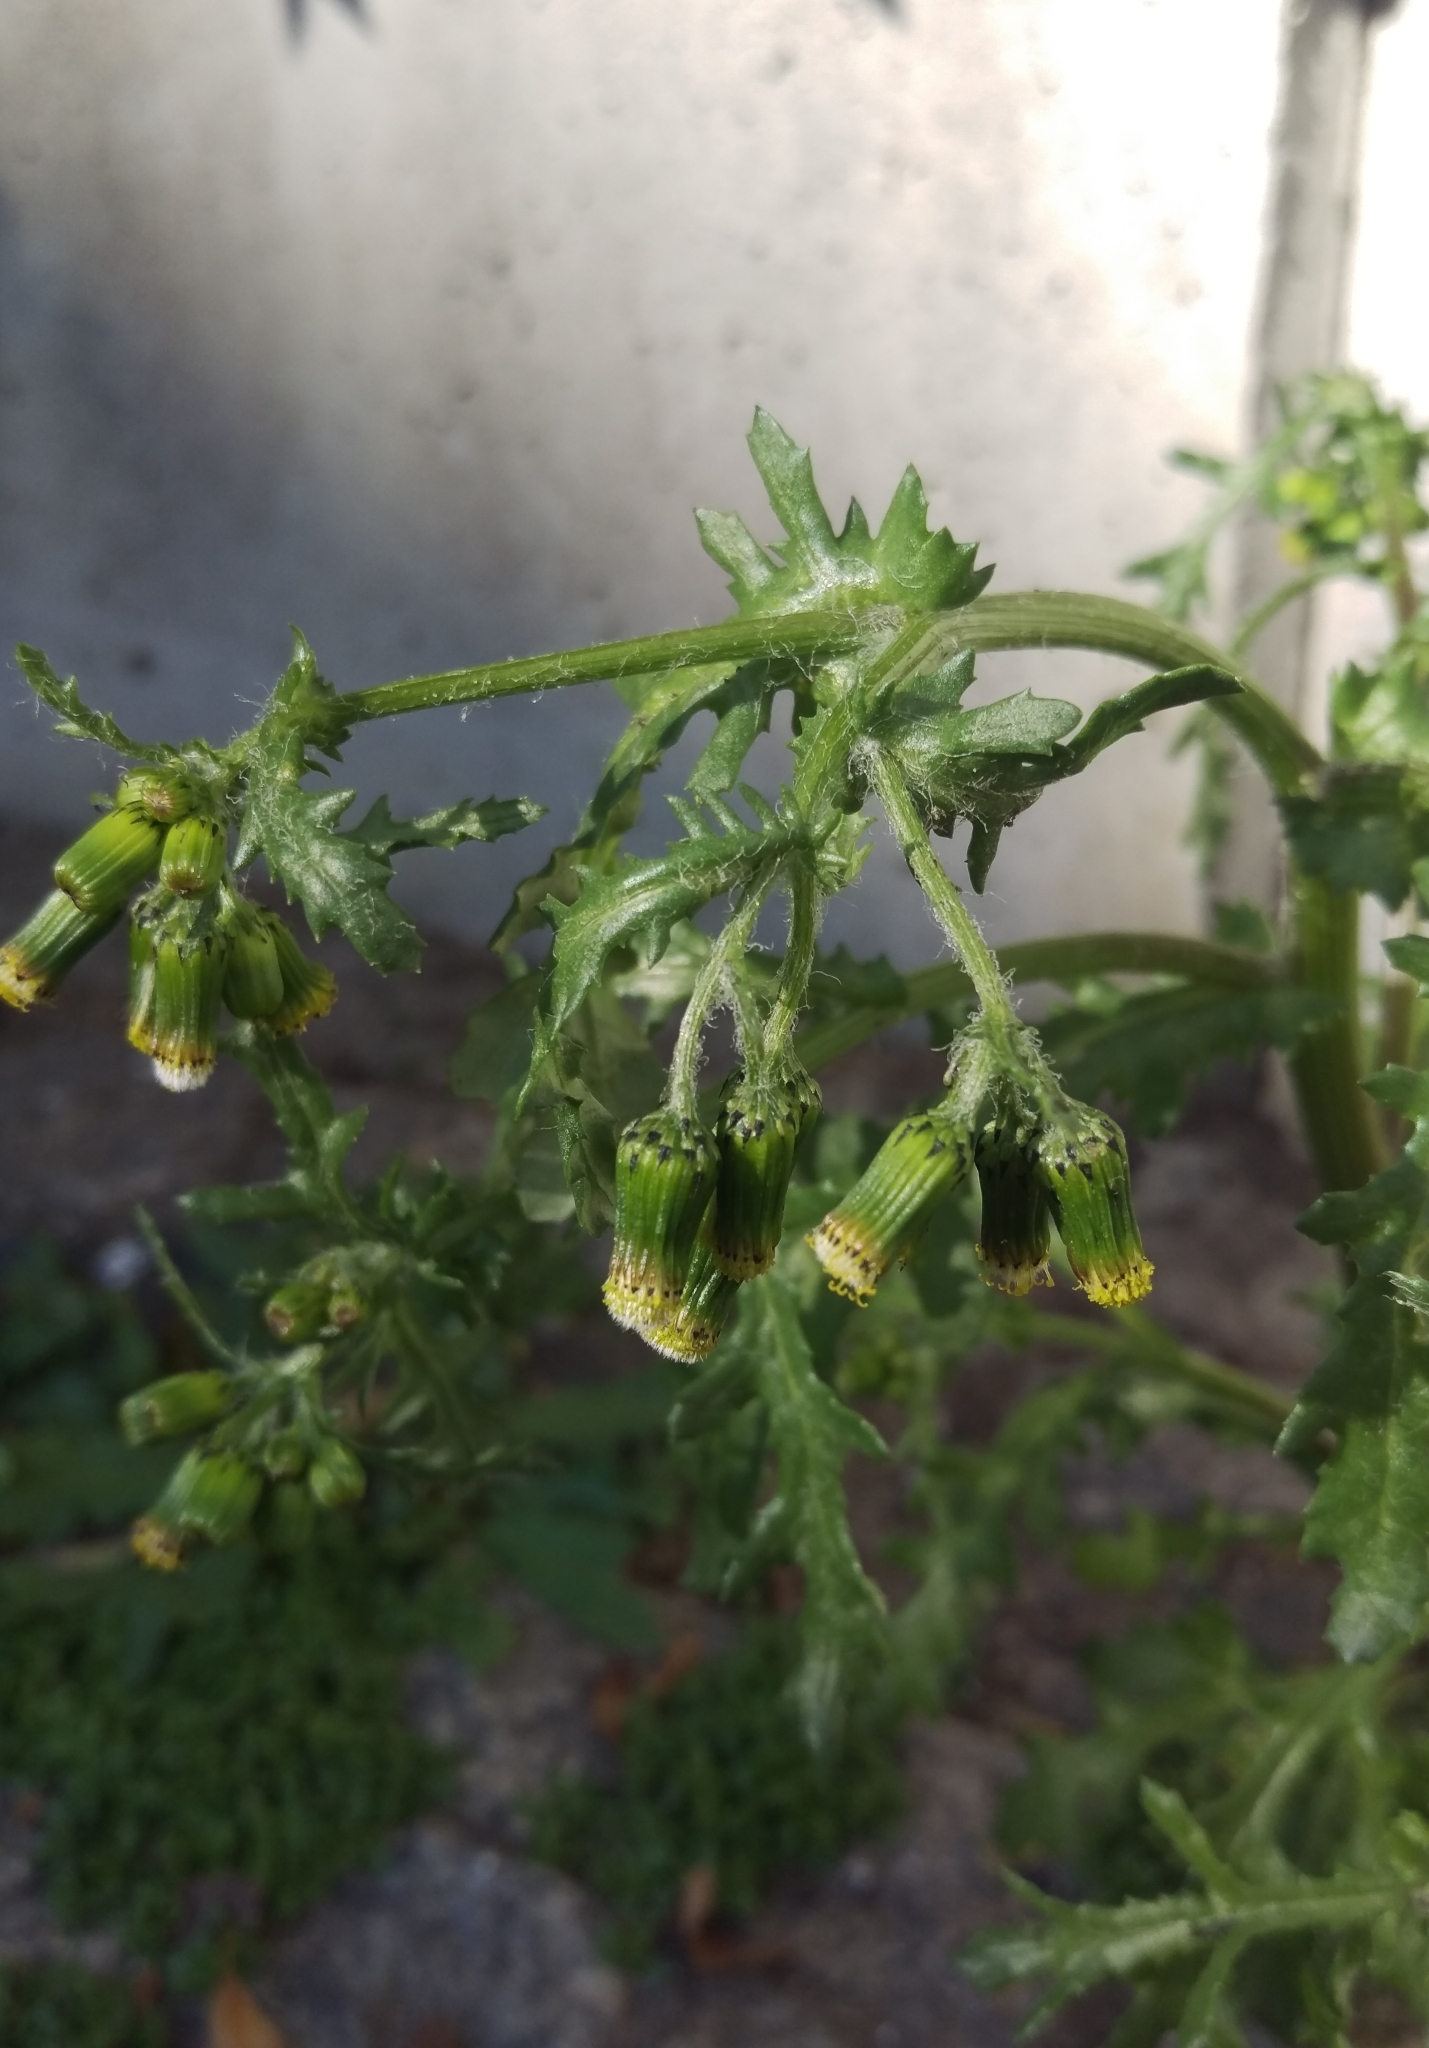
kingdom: Plantae
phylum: Tracheophyta
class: Magnoliopsida
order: Asterales
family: Asteraceae
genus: Senecio
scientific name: Senecio vulgaris
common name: Old-man-in-the-spring
